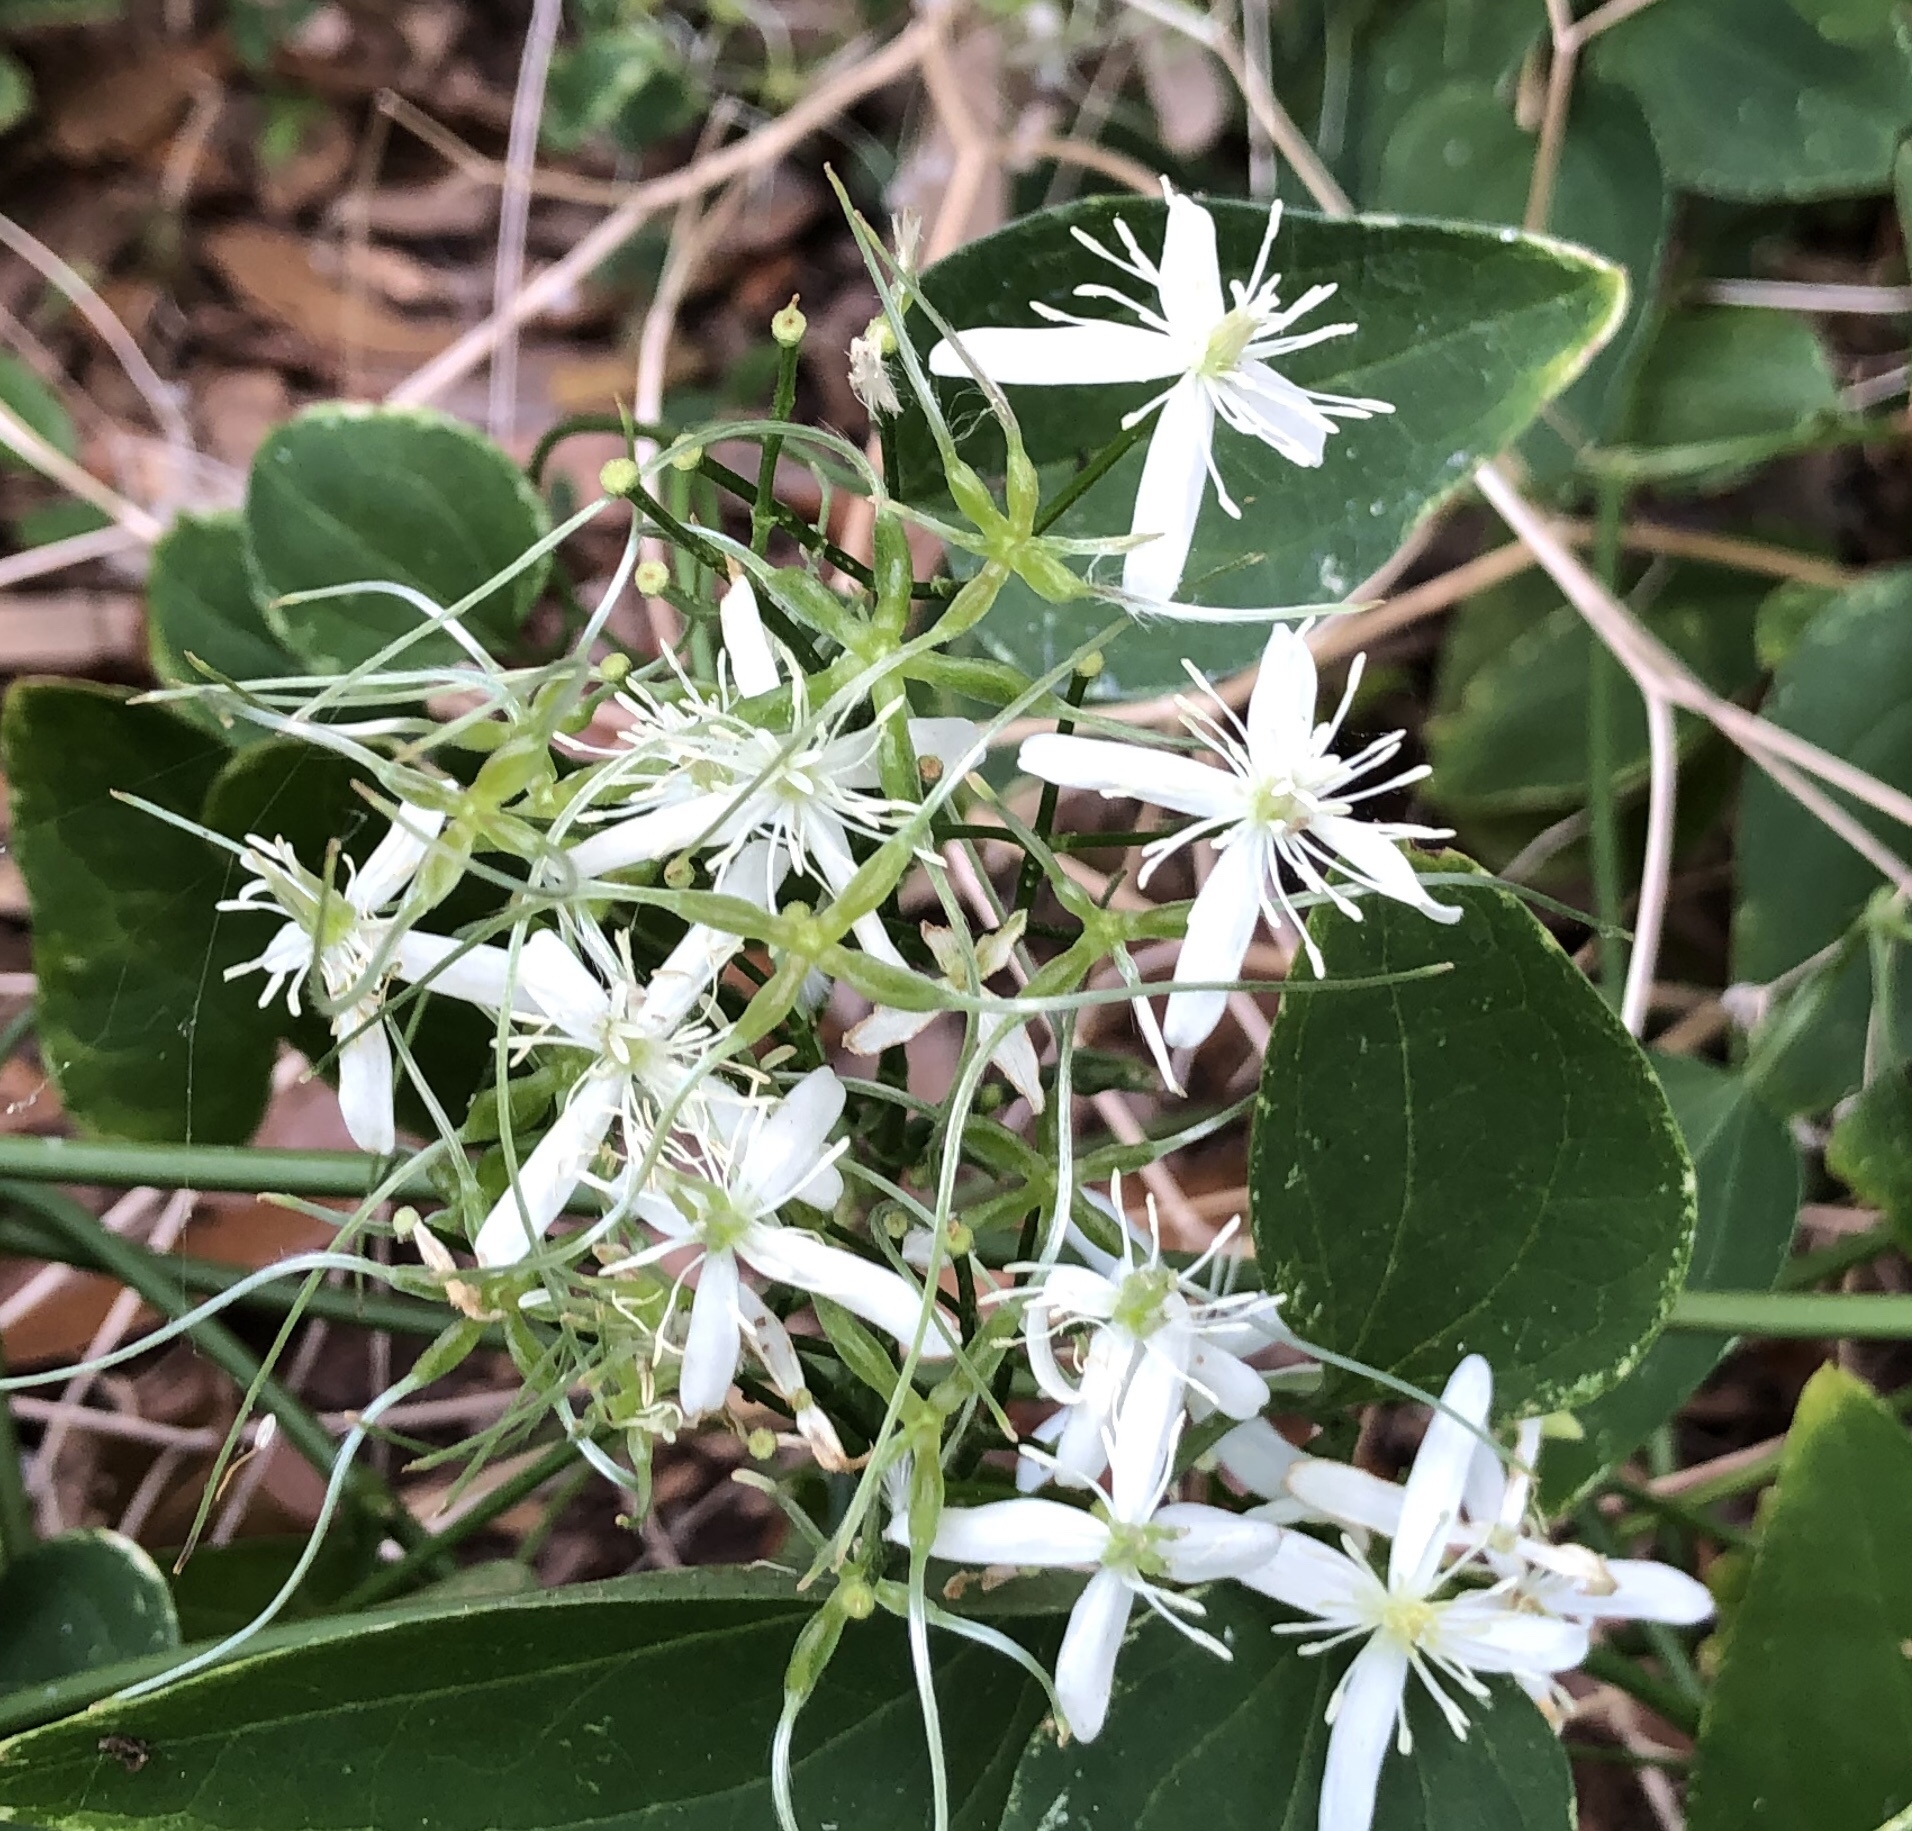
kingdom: Plantae
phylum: Tracheophyta
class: Magnoliopsida
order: Ranunculales
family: Ranunculaceae
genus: Clematis
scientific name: Clematis terniflora
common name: Sweet autumn clematis
